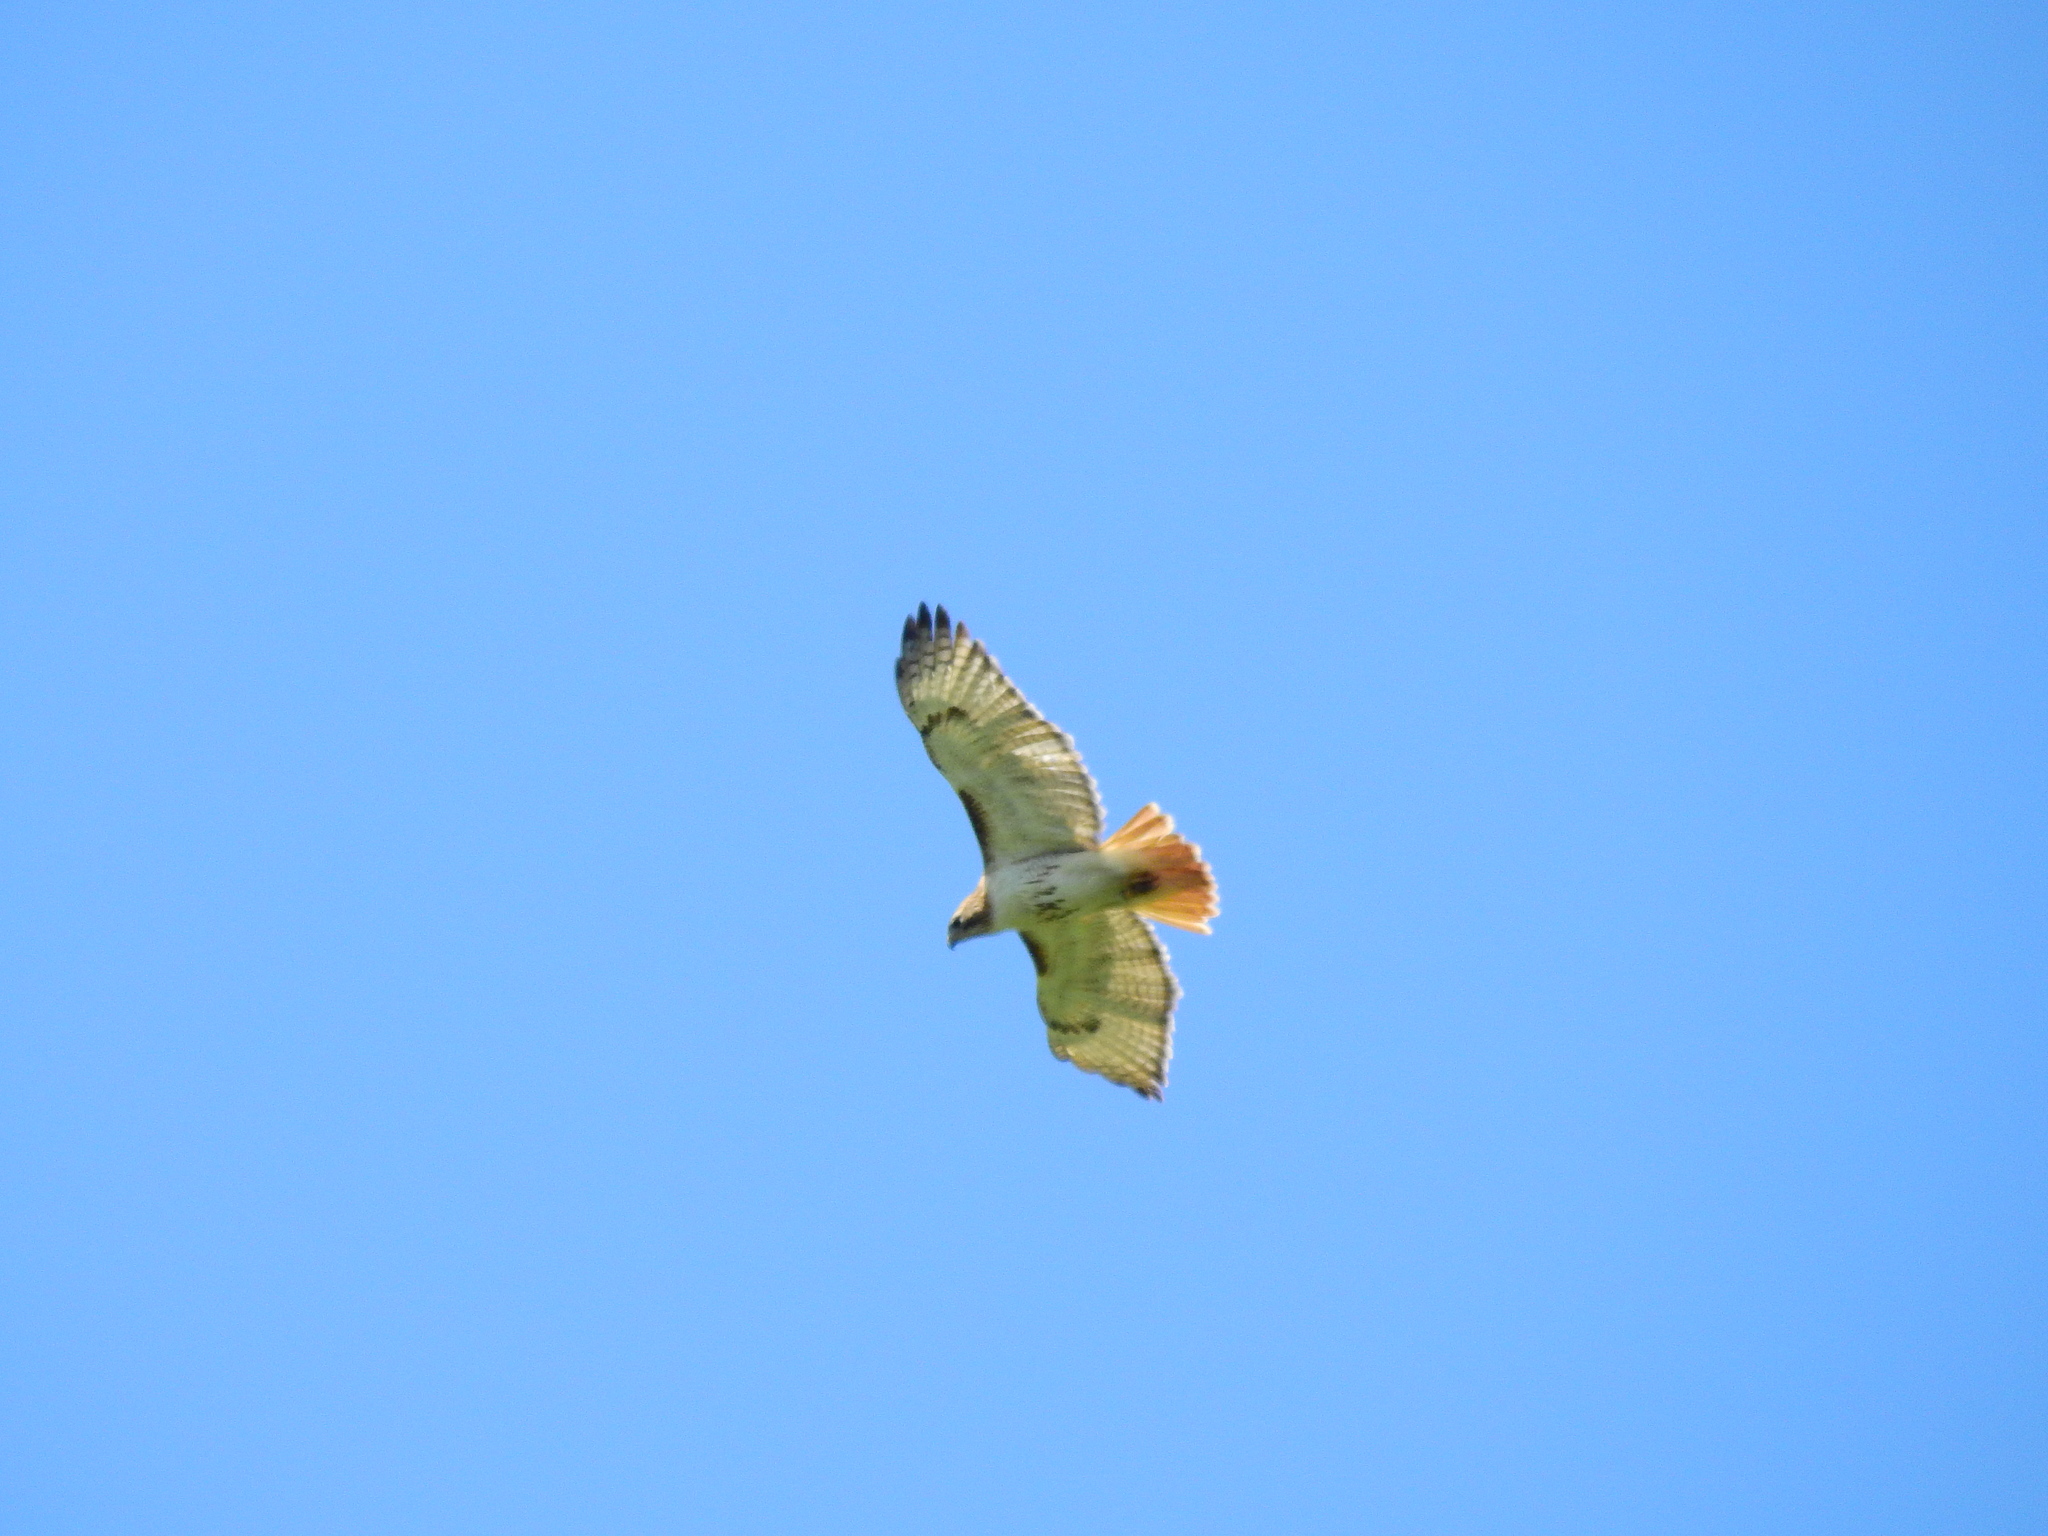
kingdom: Animalia
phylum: Chordata
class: Aves
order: Accipitriformes
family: Accipitridae
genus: Buteo
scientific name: Buteo jamaicensis
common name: Red-tailed hawk
